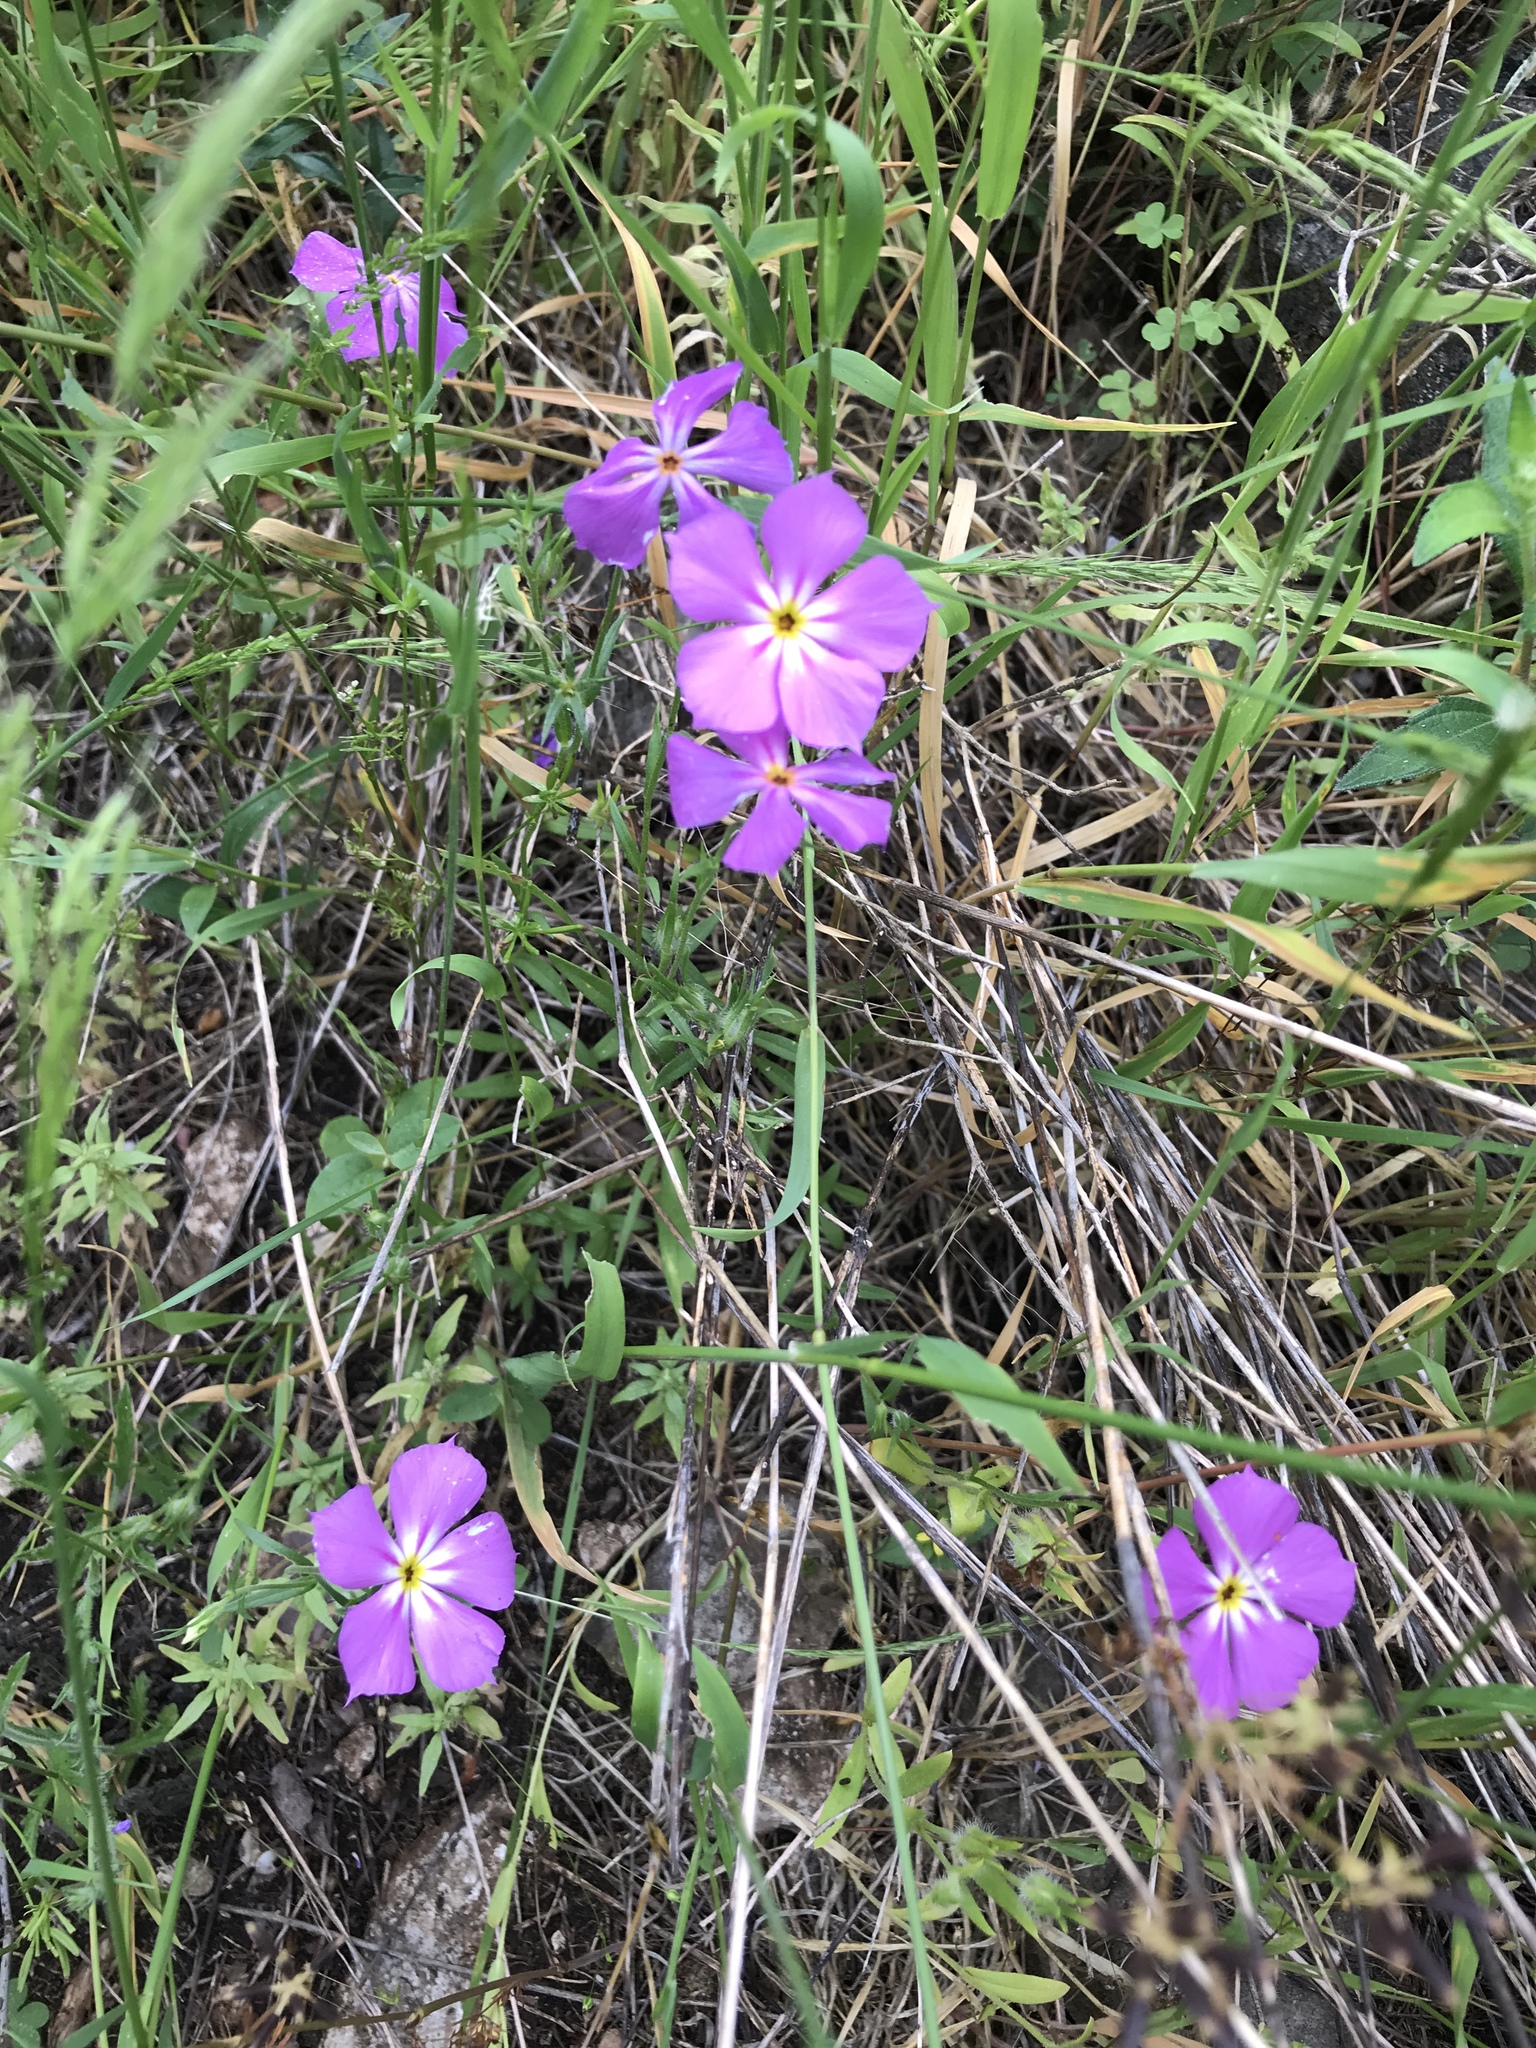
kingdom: Plantae
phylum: Tracheophyta
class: Magnoliopsida
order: Ericales
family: Polemoniaceae
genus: Phlox
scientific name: Phlox roemeriana
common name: Roemer's phlox
